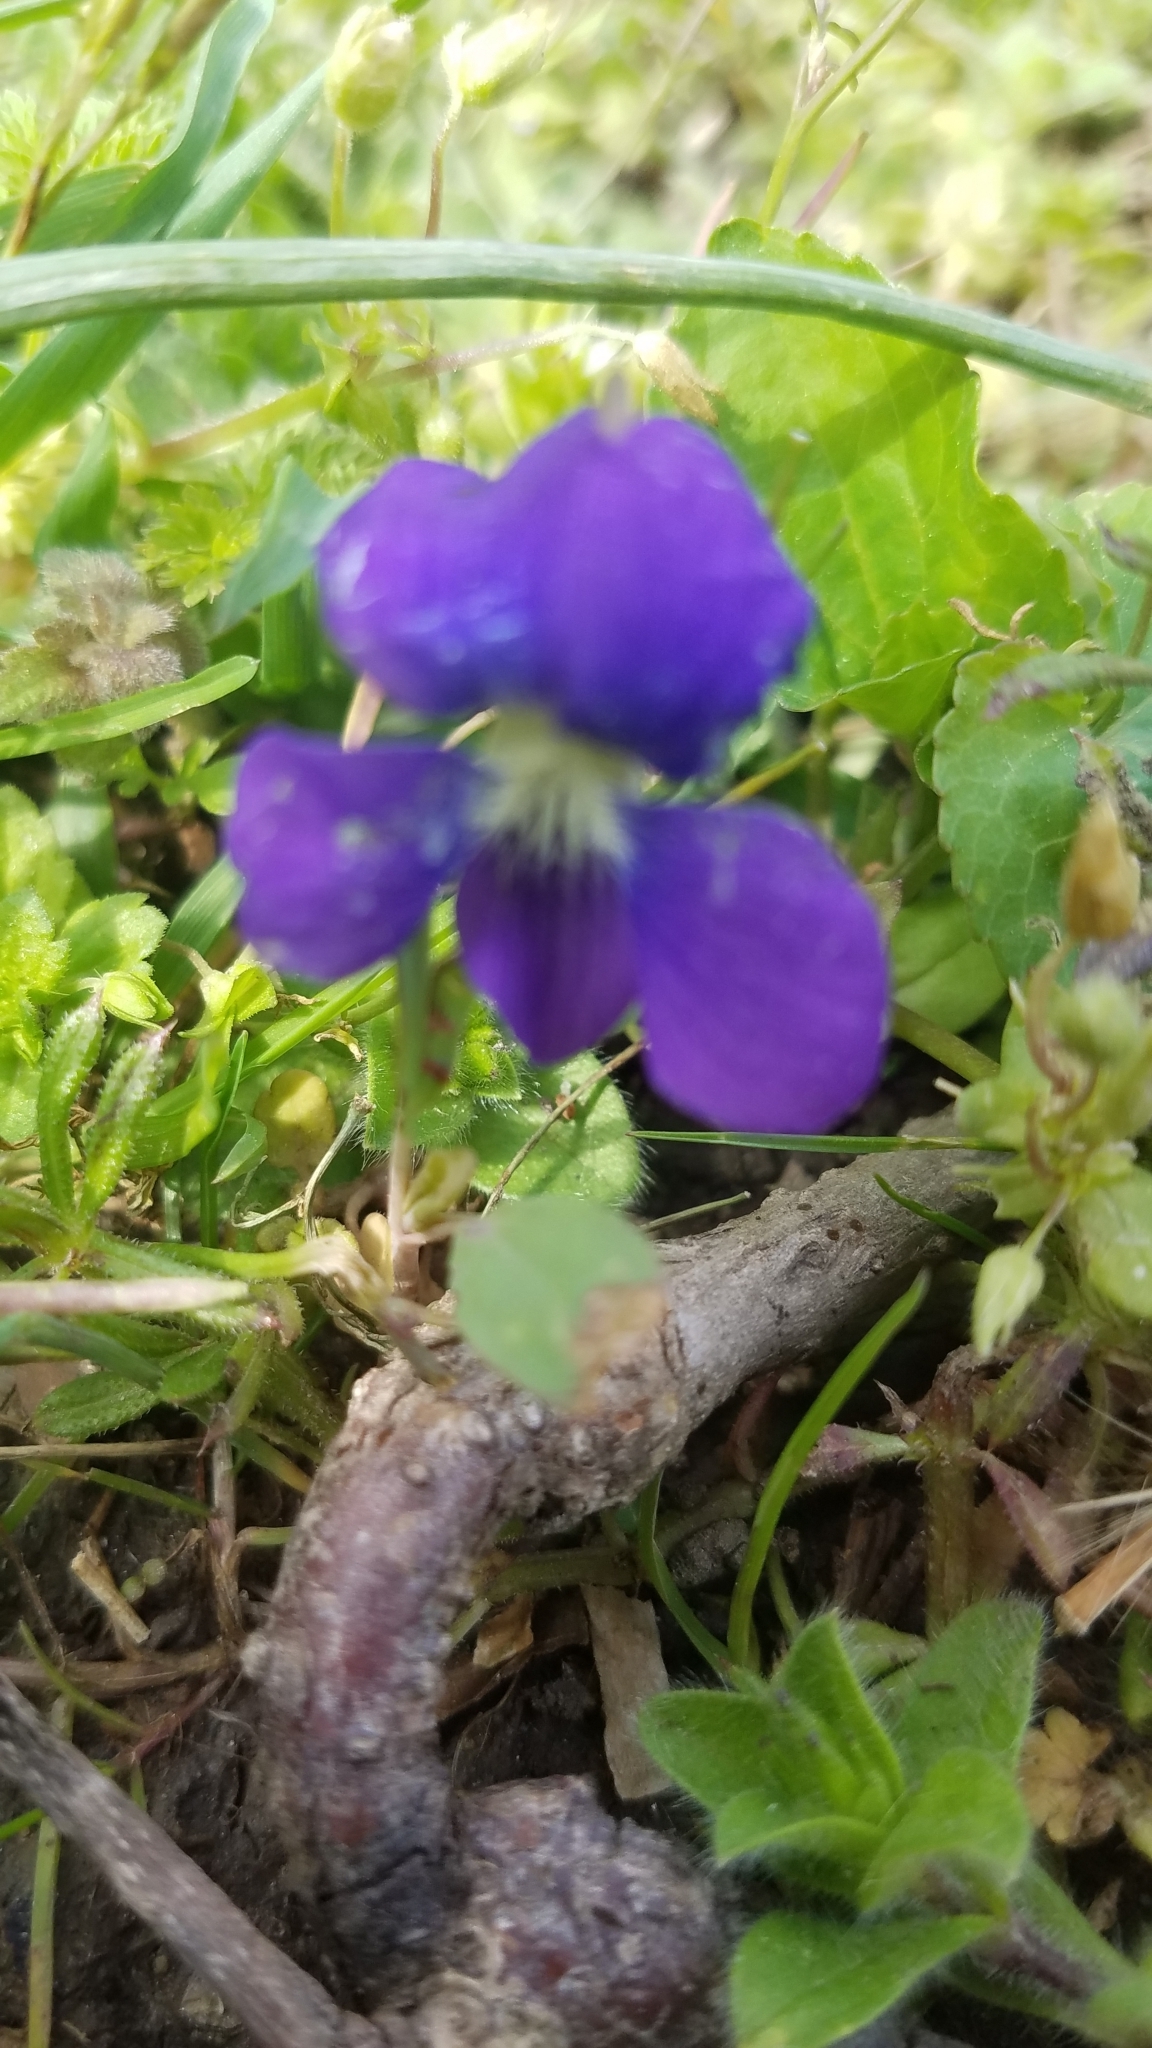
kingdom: Plantae
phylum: Tracheophyta
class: Magnoliopsida
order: Malpighiales
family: Violaceae
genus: Viola
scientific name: Viola sororia
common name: Dooryard violet
